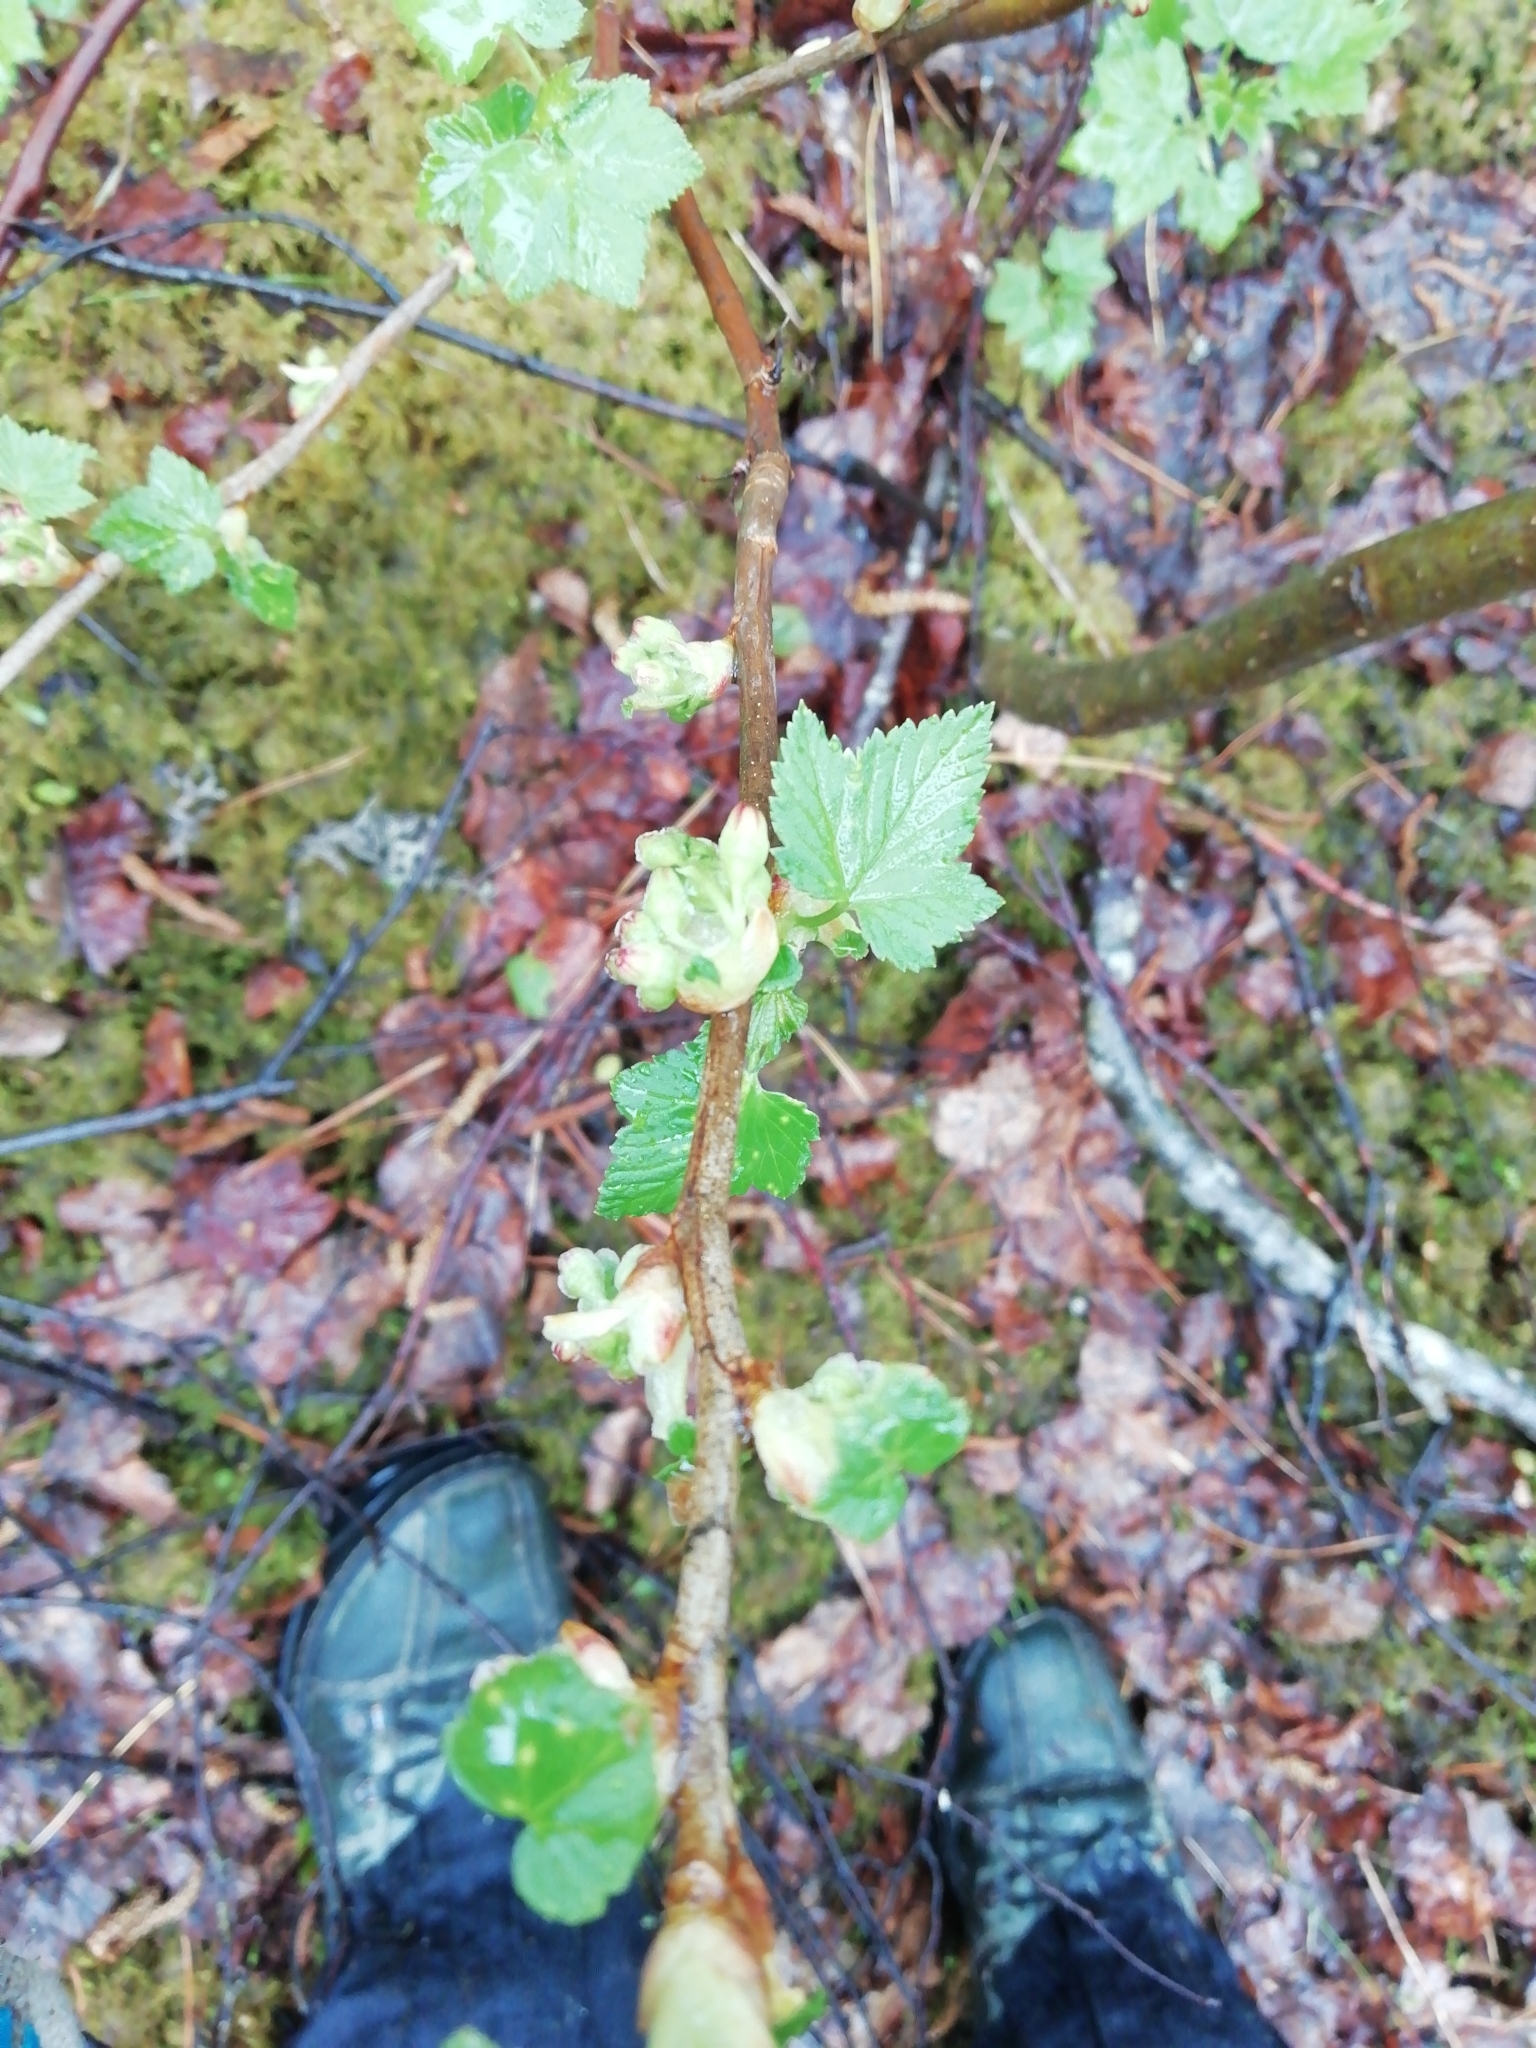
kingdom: Plantae
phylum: Tracheophyta
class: Magnoliopsida
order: Saxifragales
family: Grossulariaceae
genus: Ribes
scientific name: Ribes nigrum
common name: Black currant
